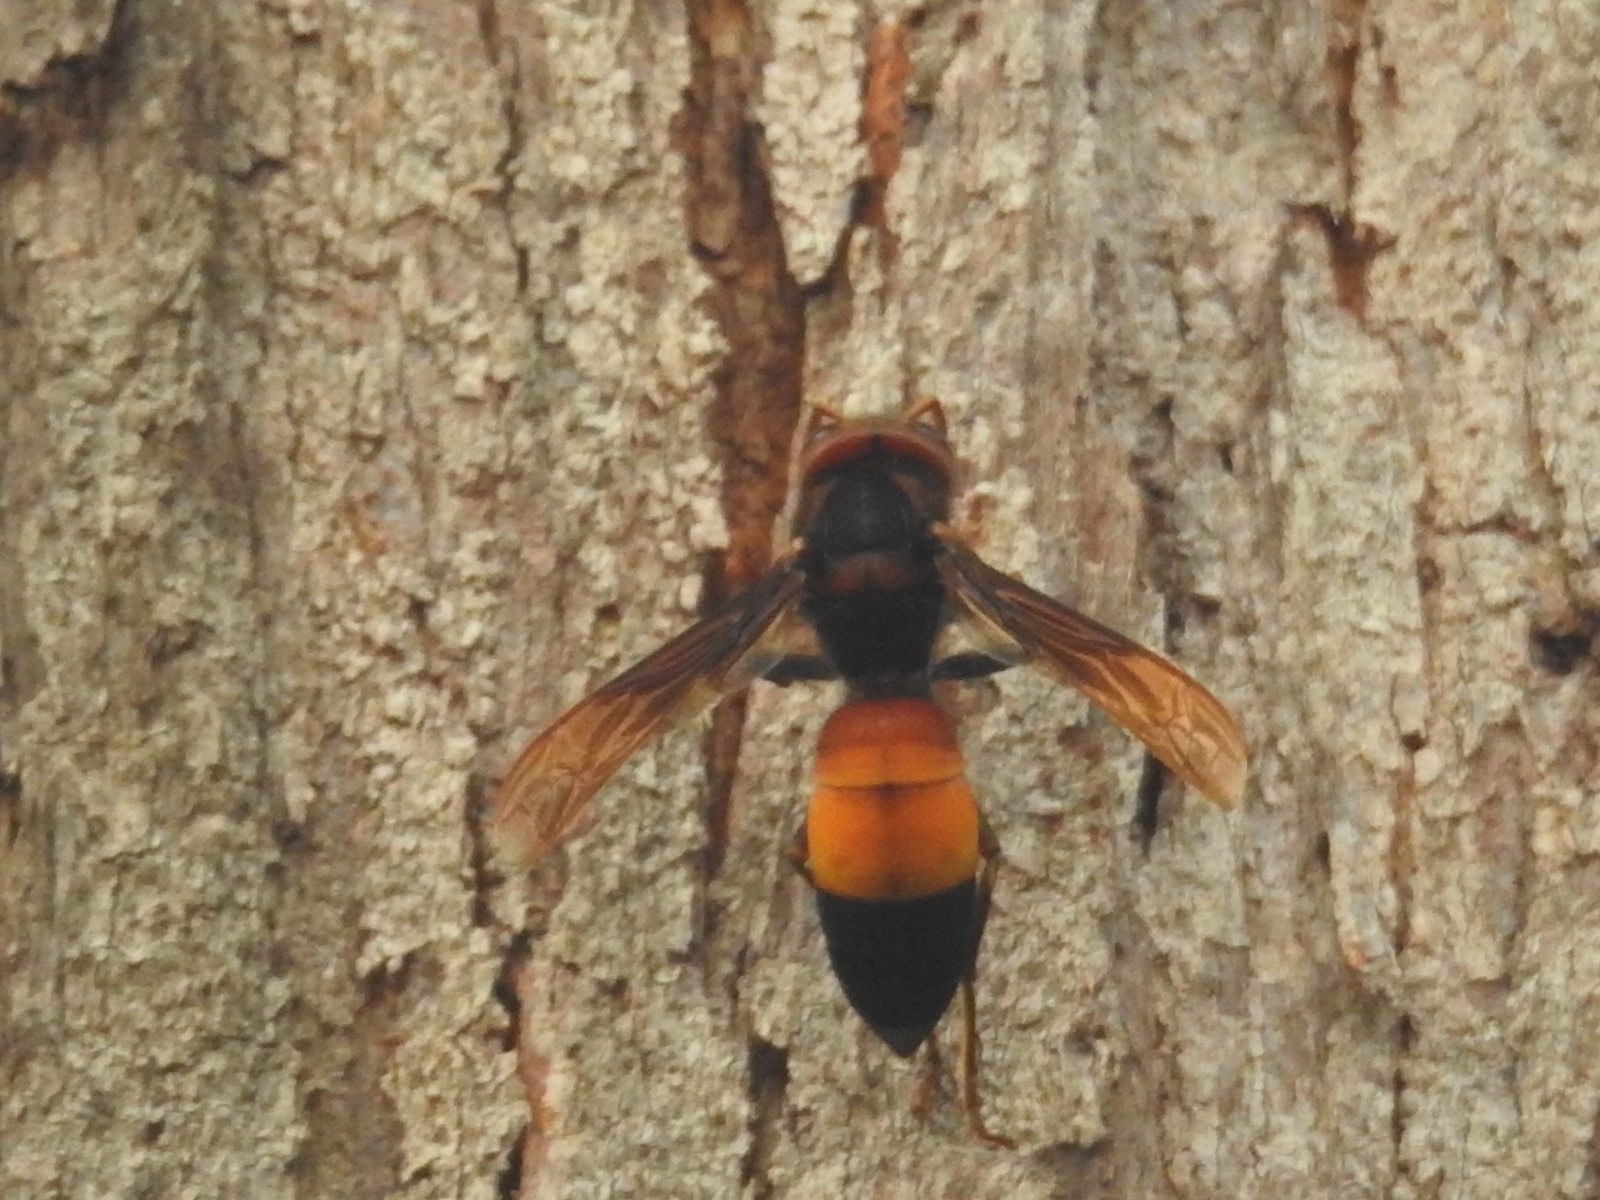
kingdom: Animalia
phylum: Arthropoda
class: Insecta
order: Hymenoptera
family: Vespidae
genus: Vespa
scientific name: Vespa affinis
